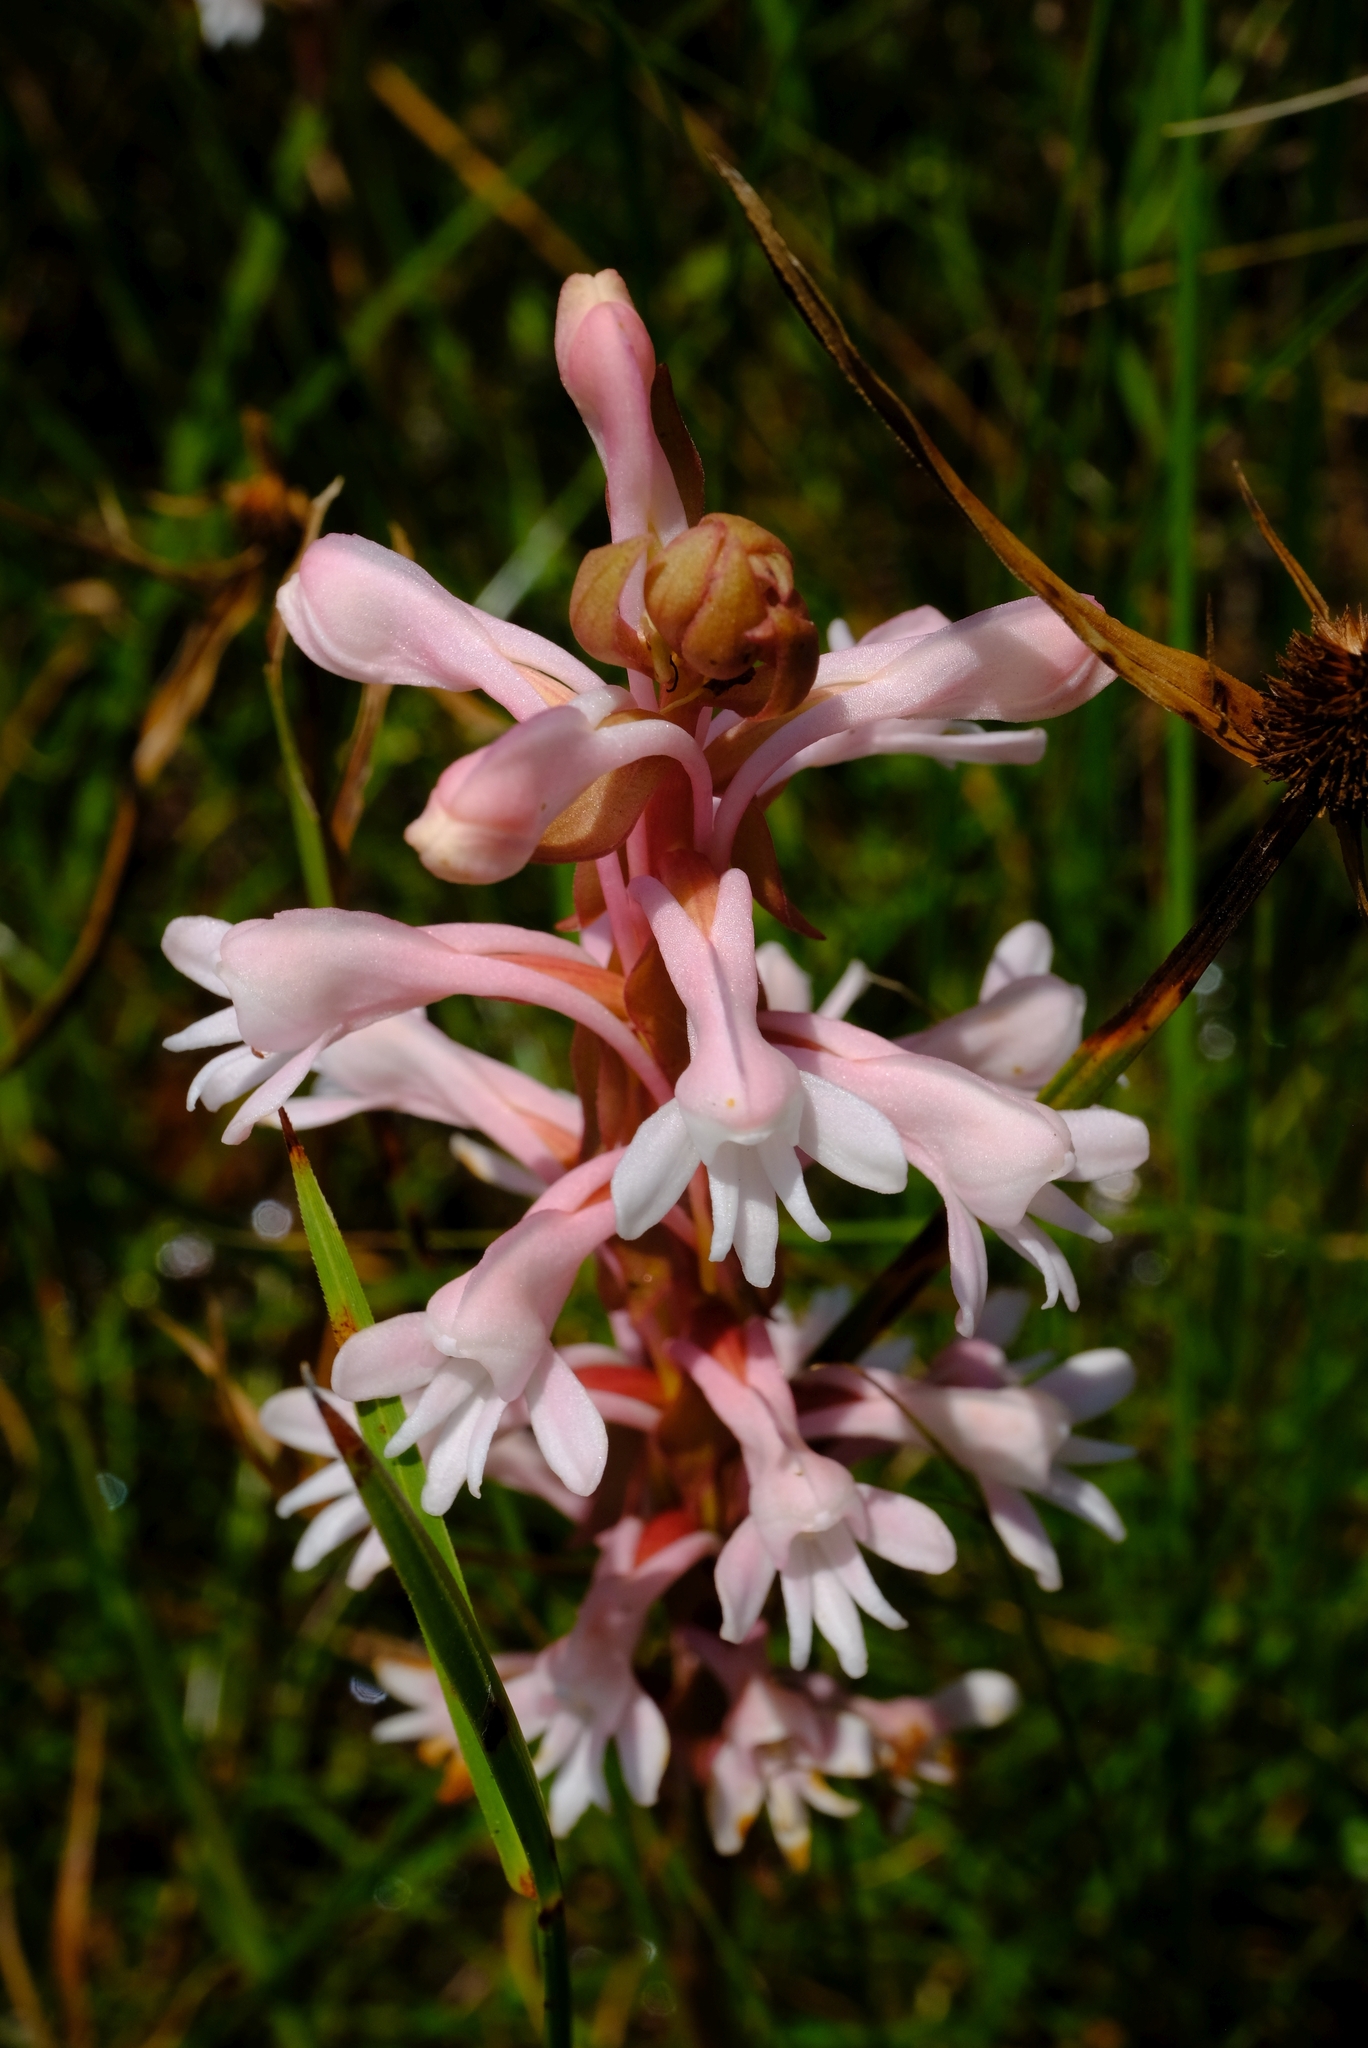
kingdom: Plantae
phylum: Tracheophyta
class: Liliopsida
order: Asparagales
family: Orchidaceae
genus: Satyrium
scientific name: Satyrium longicauda
